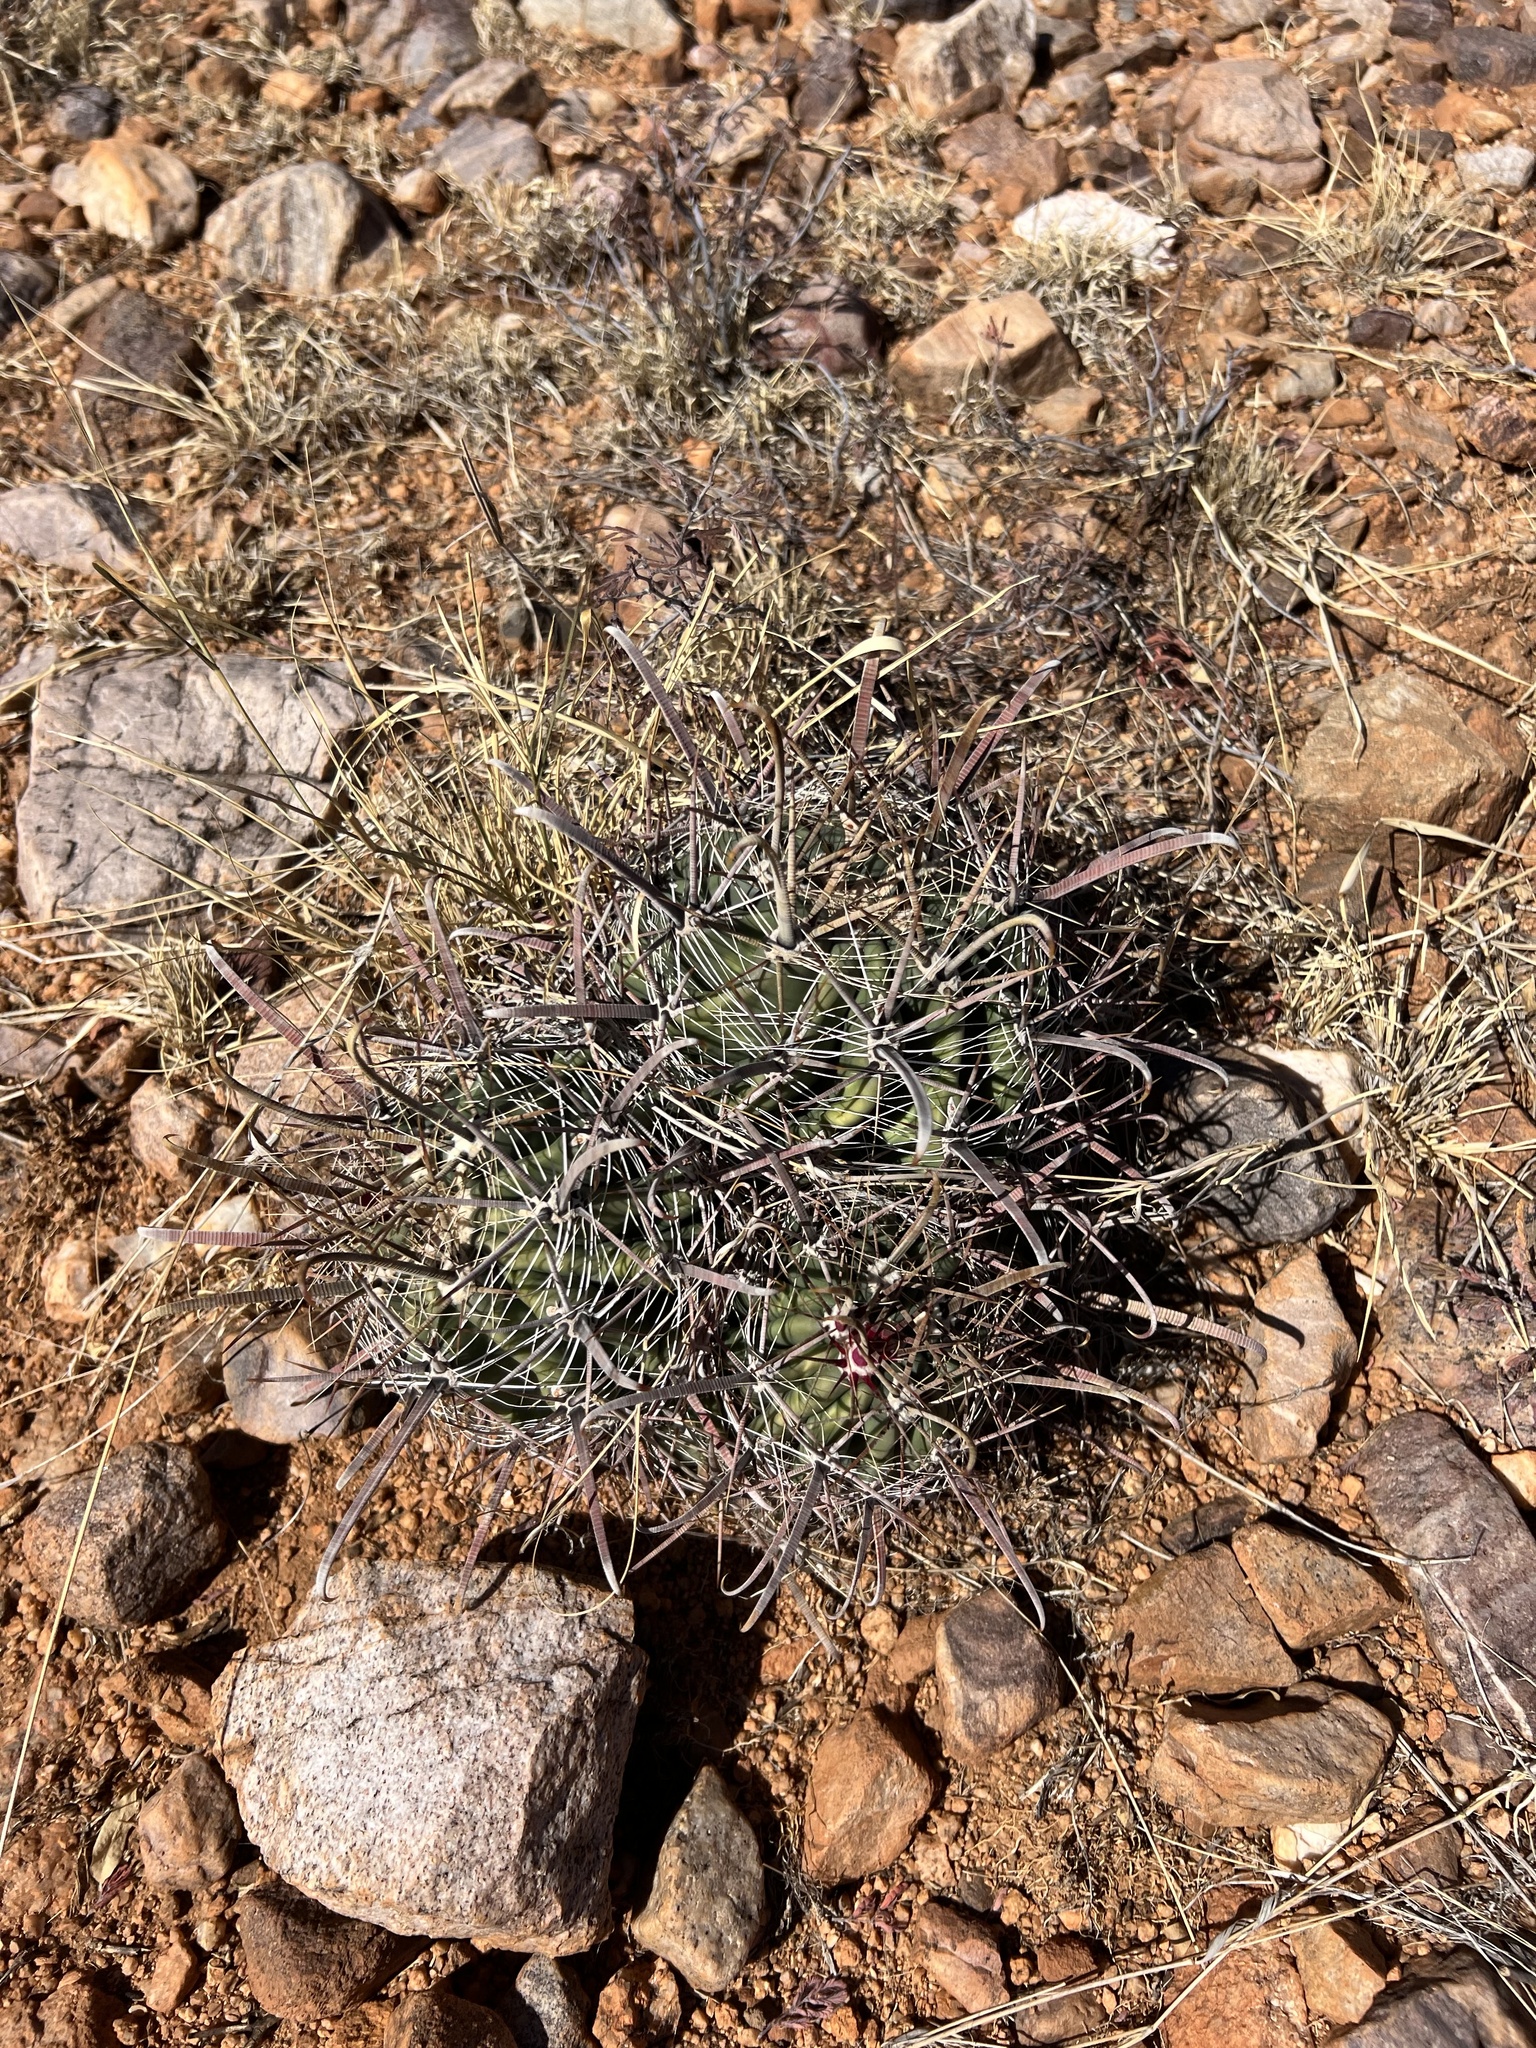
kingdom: Plantae
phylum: Tracheophyta
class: Magnoliopsida
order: Caryophyllales
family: Cactaceae
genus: Ferocactus
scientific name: Ferocactus wislizeni
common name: Candy barrel cactus
